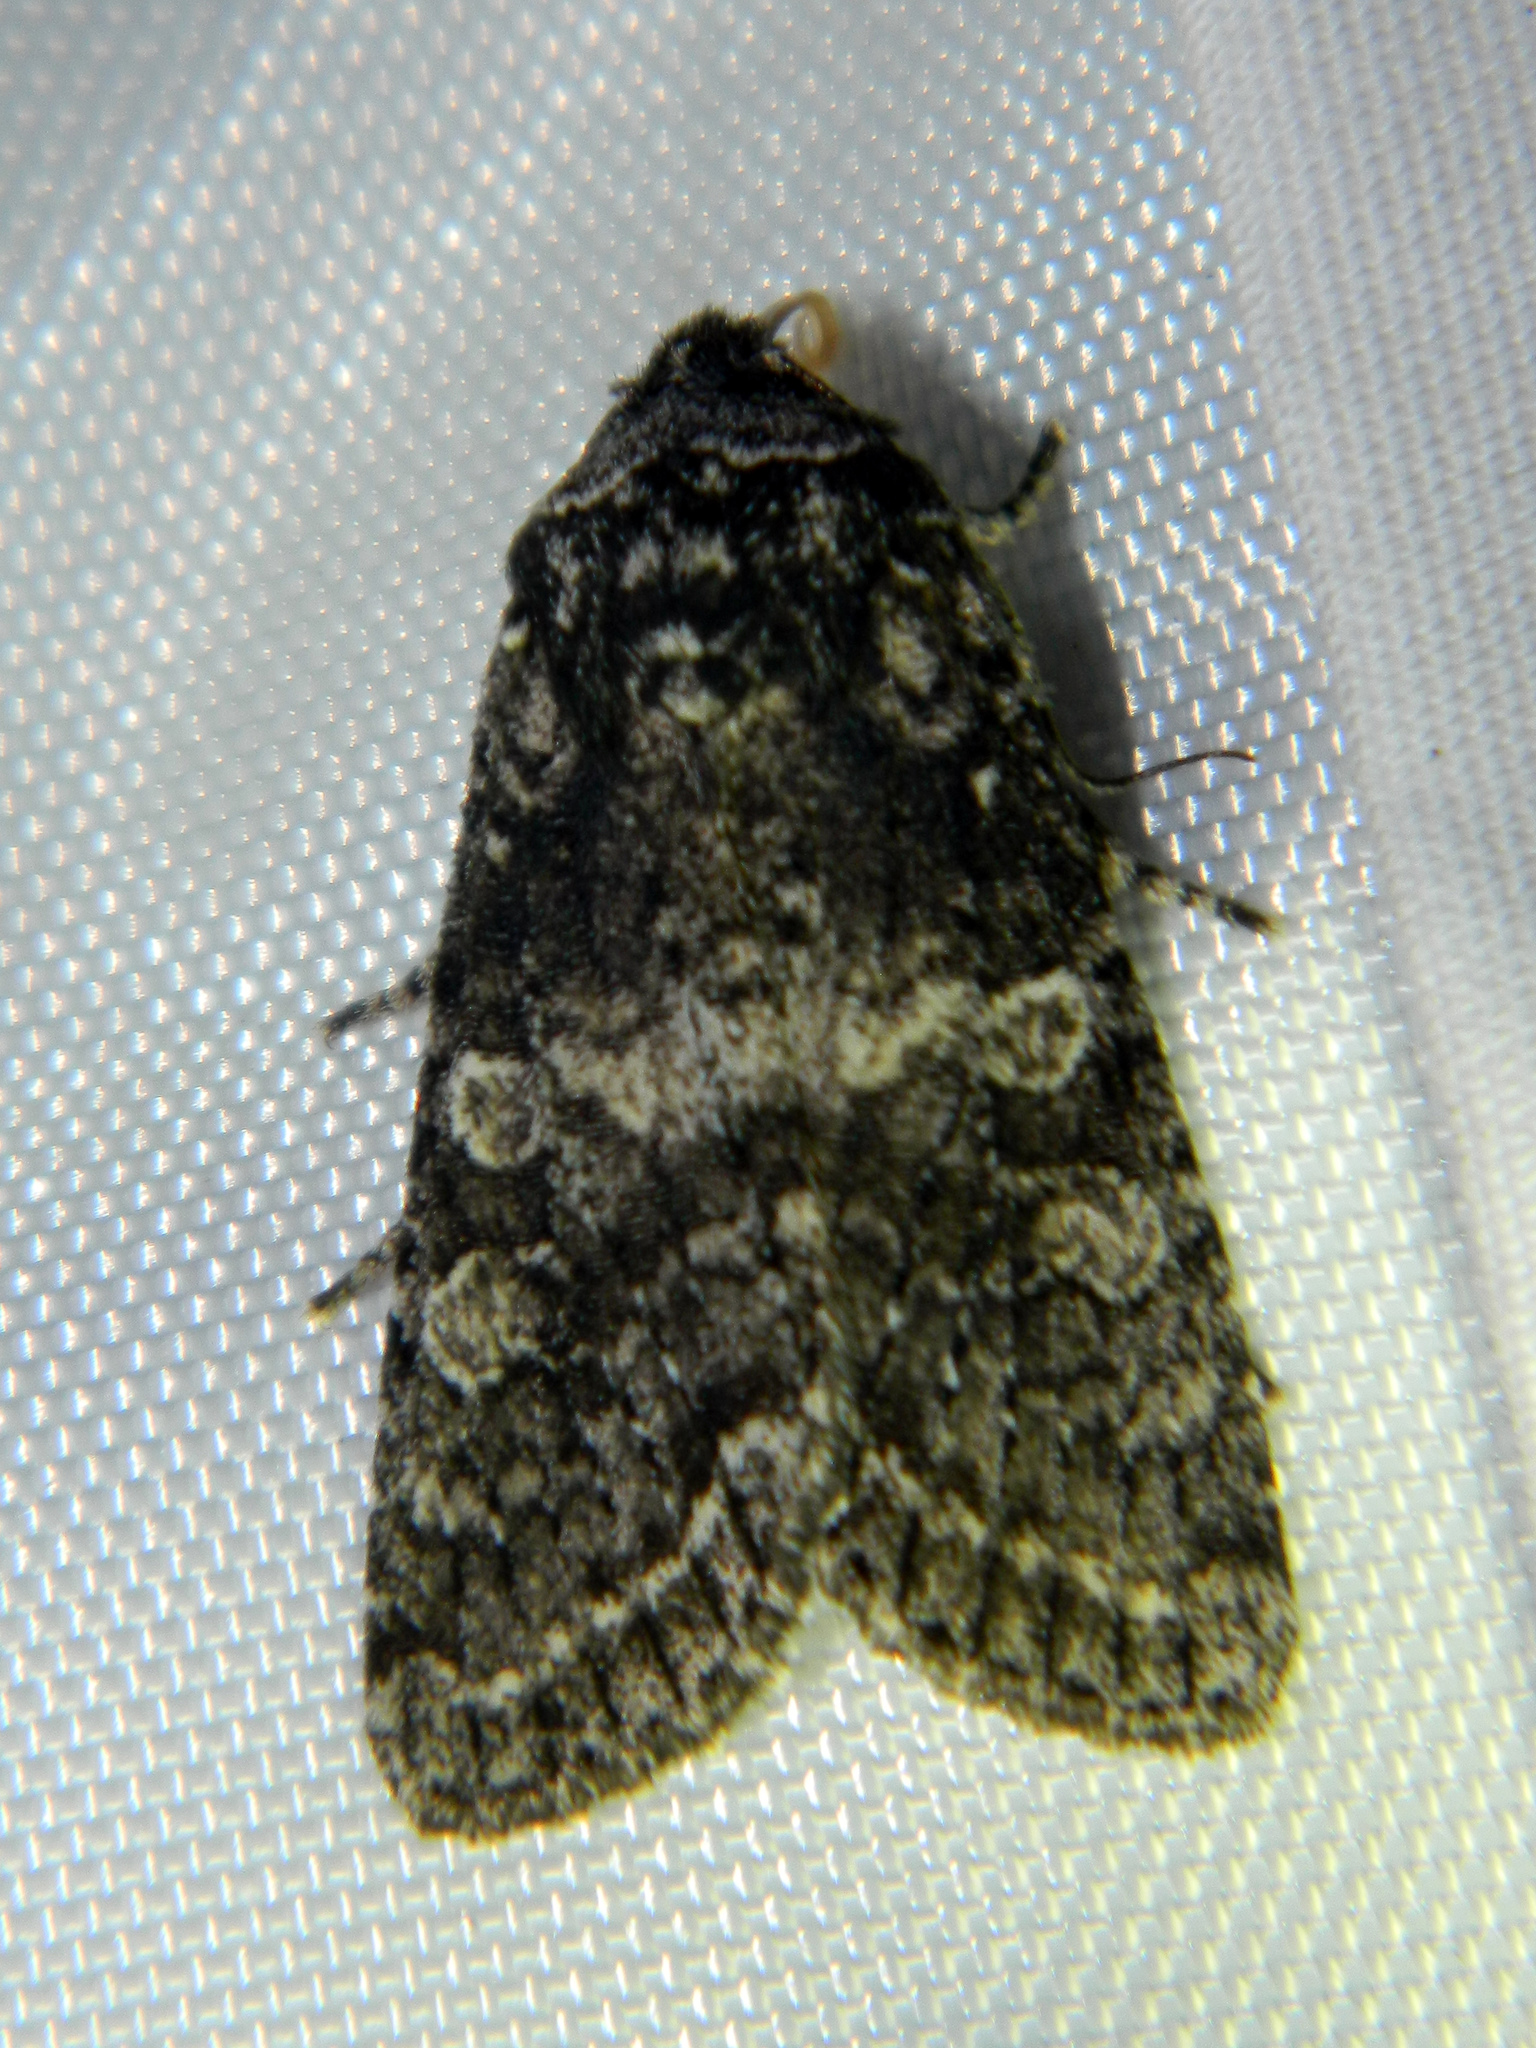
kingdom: Animalia
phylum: Arthropoda
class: Insecta
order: Lepidoptera
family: Noctuidae
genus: Egira
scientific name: Egira dolosa
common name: Lined black aspen cat.
